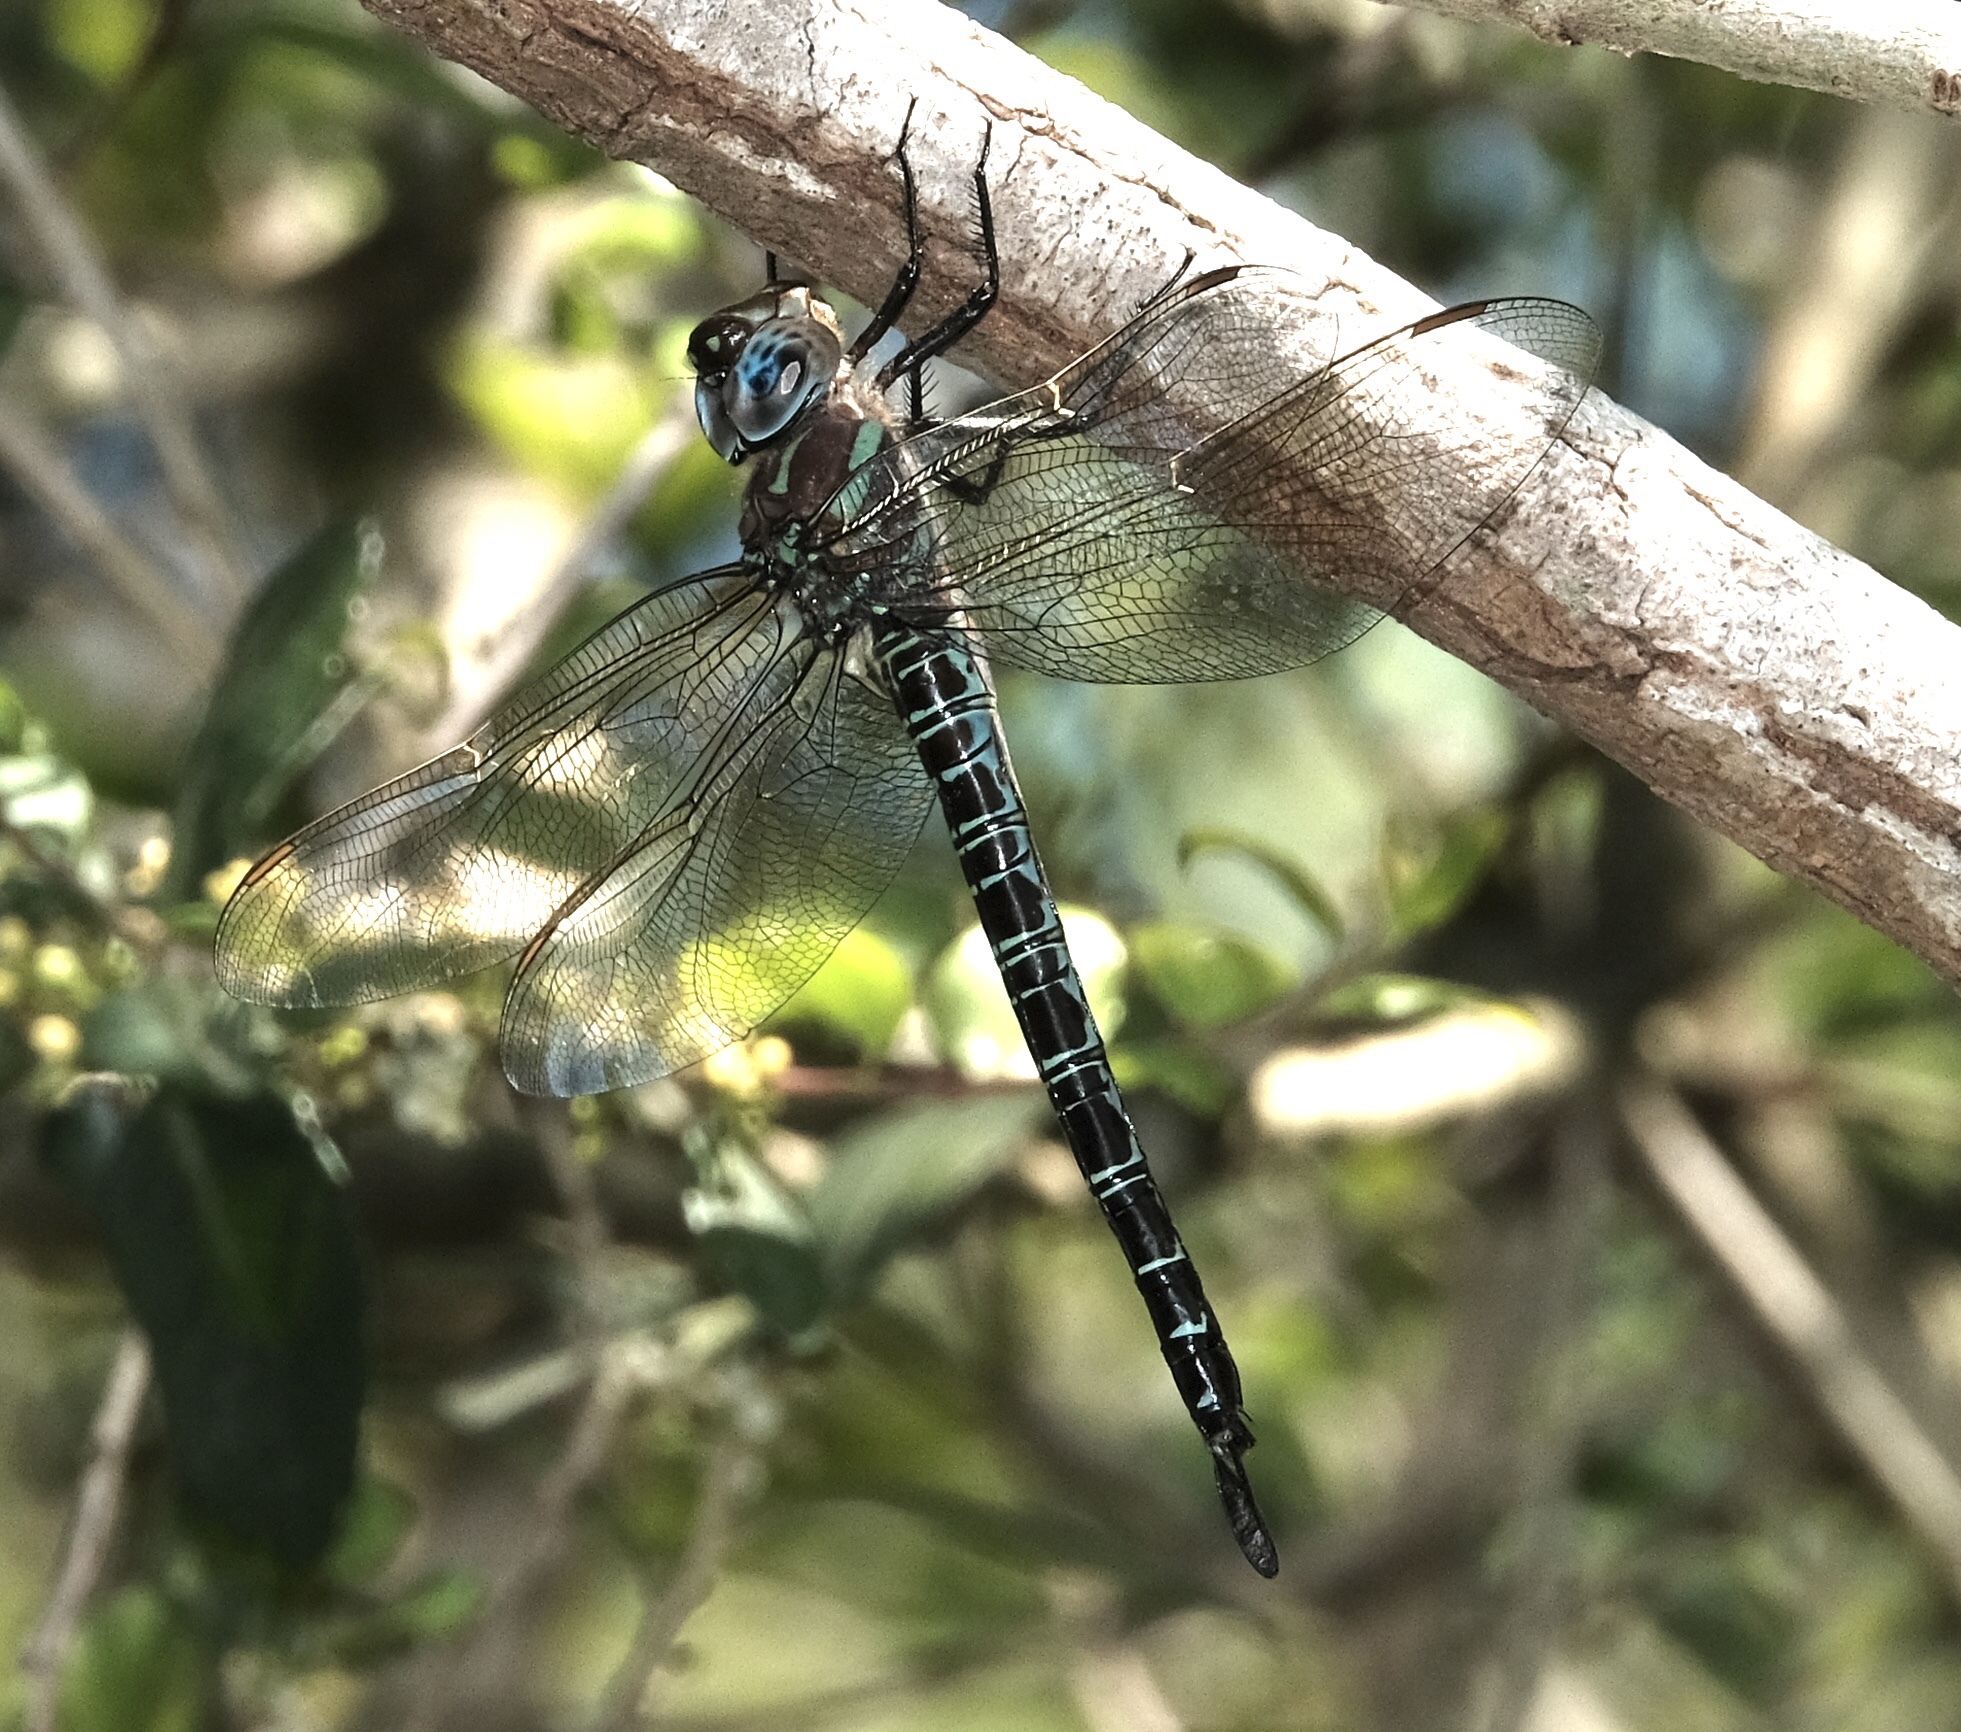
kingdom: Animalia
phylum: Arthropoda
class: Insecta
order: Odonata
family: Aeshnidae
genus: Epiaeschna
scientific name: Epiaeschna heros
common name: Swamp darner
